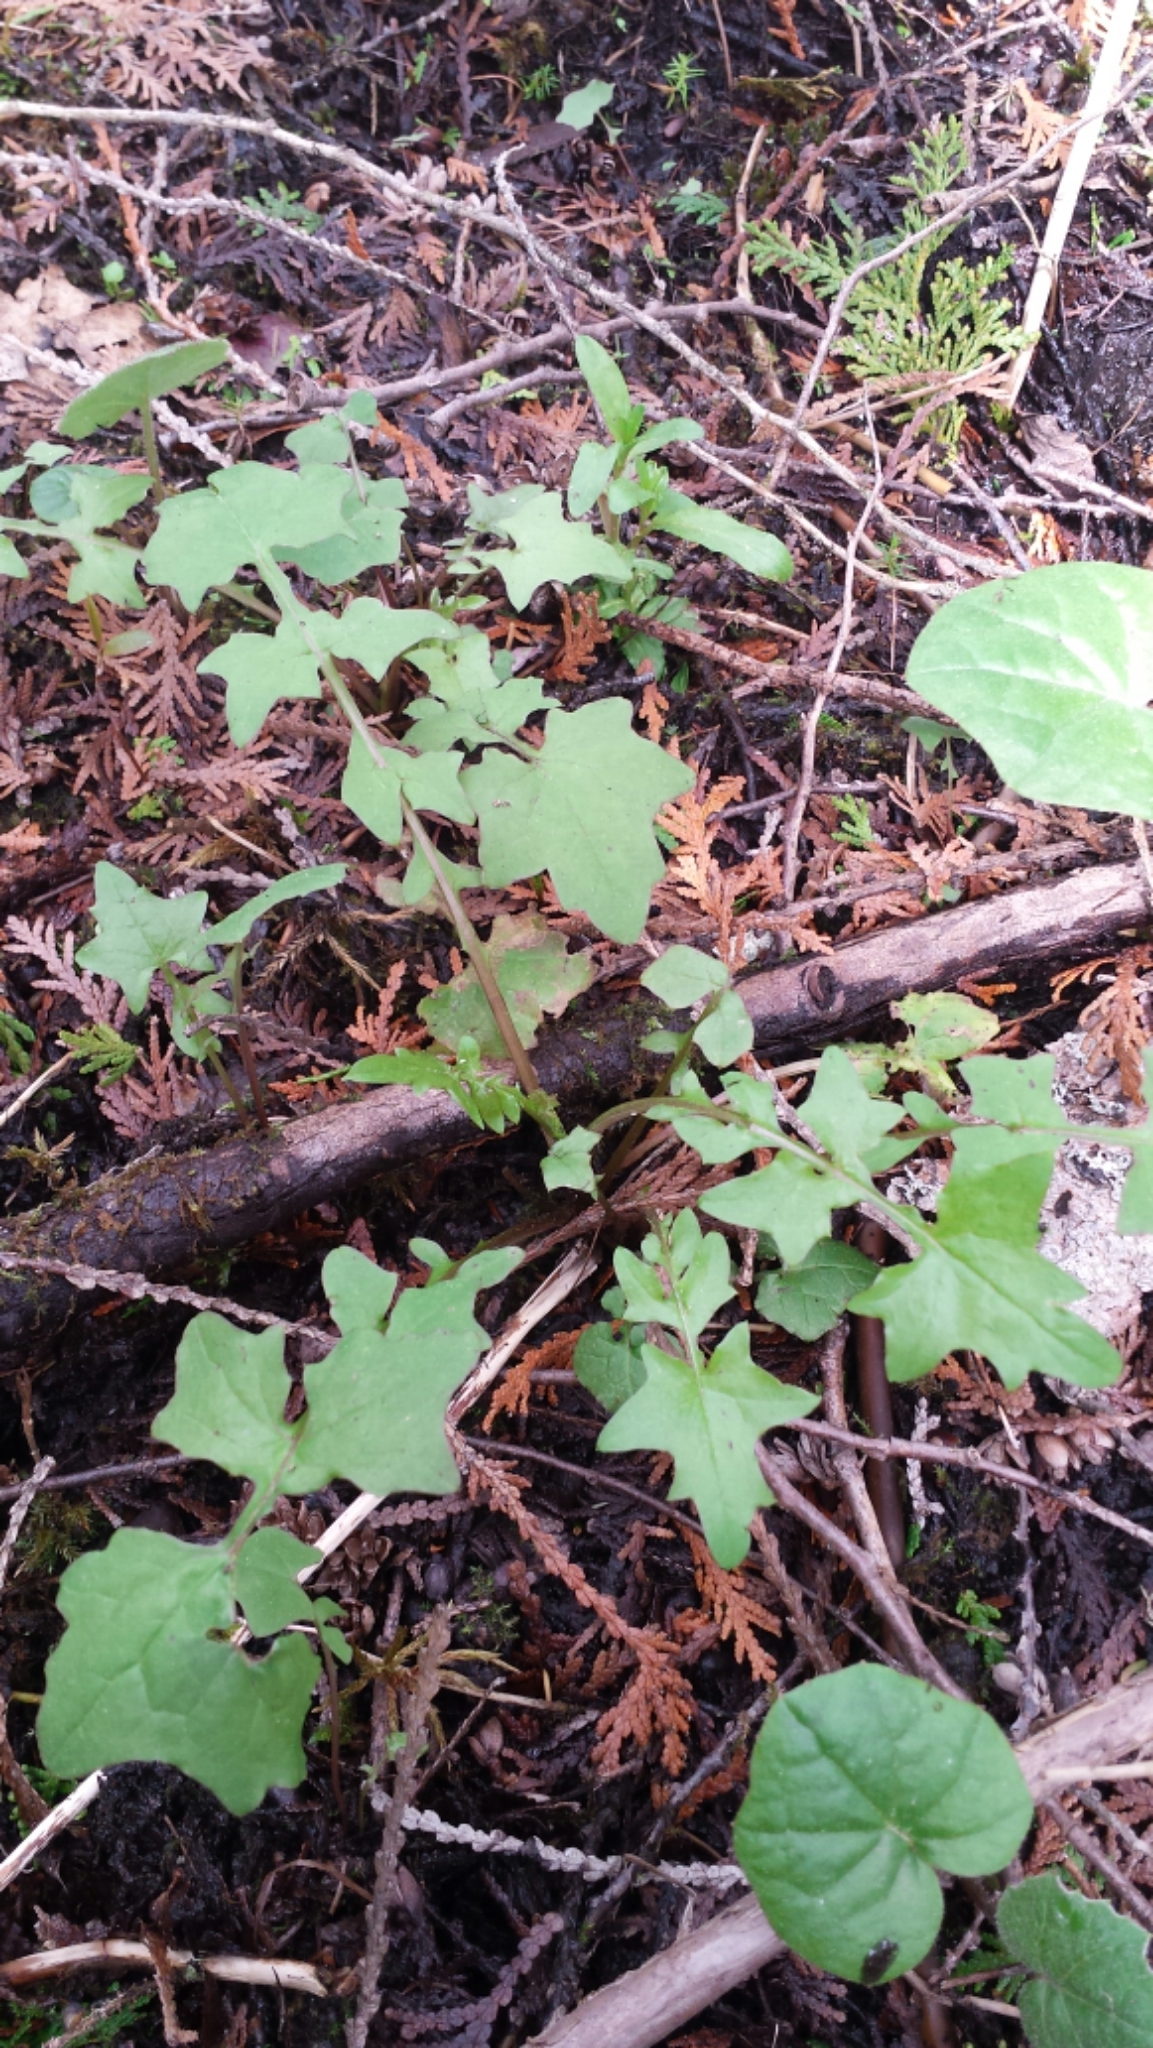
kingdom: Plantae
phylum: Tracheophyta
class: Magnoliopsida
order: Asterales
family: Asteraceae
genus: Mycelis
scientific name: Mycelis muralis
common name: Wall lettuce
